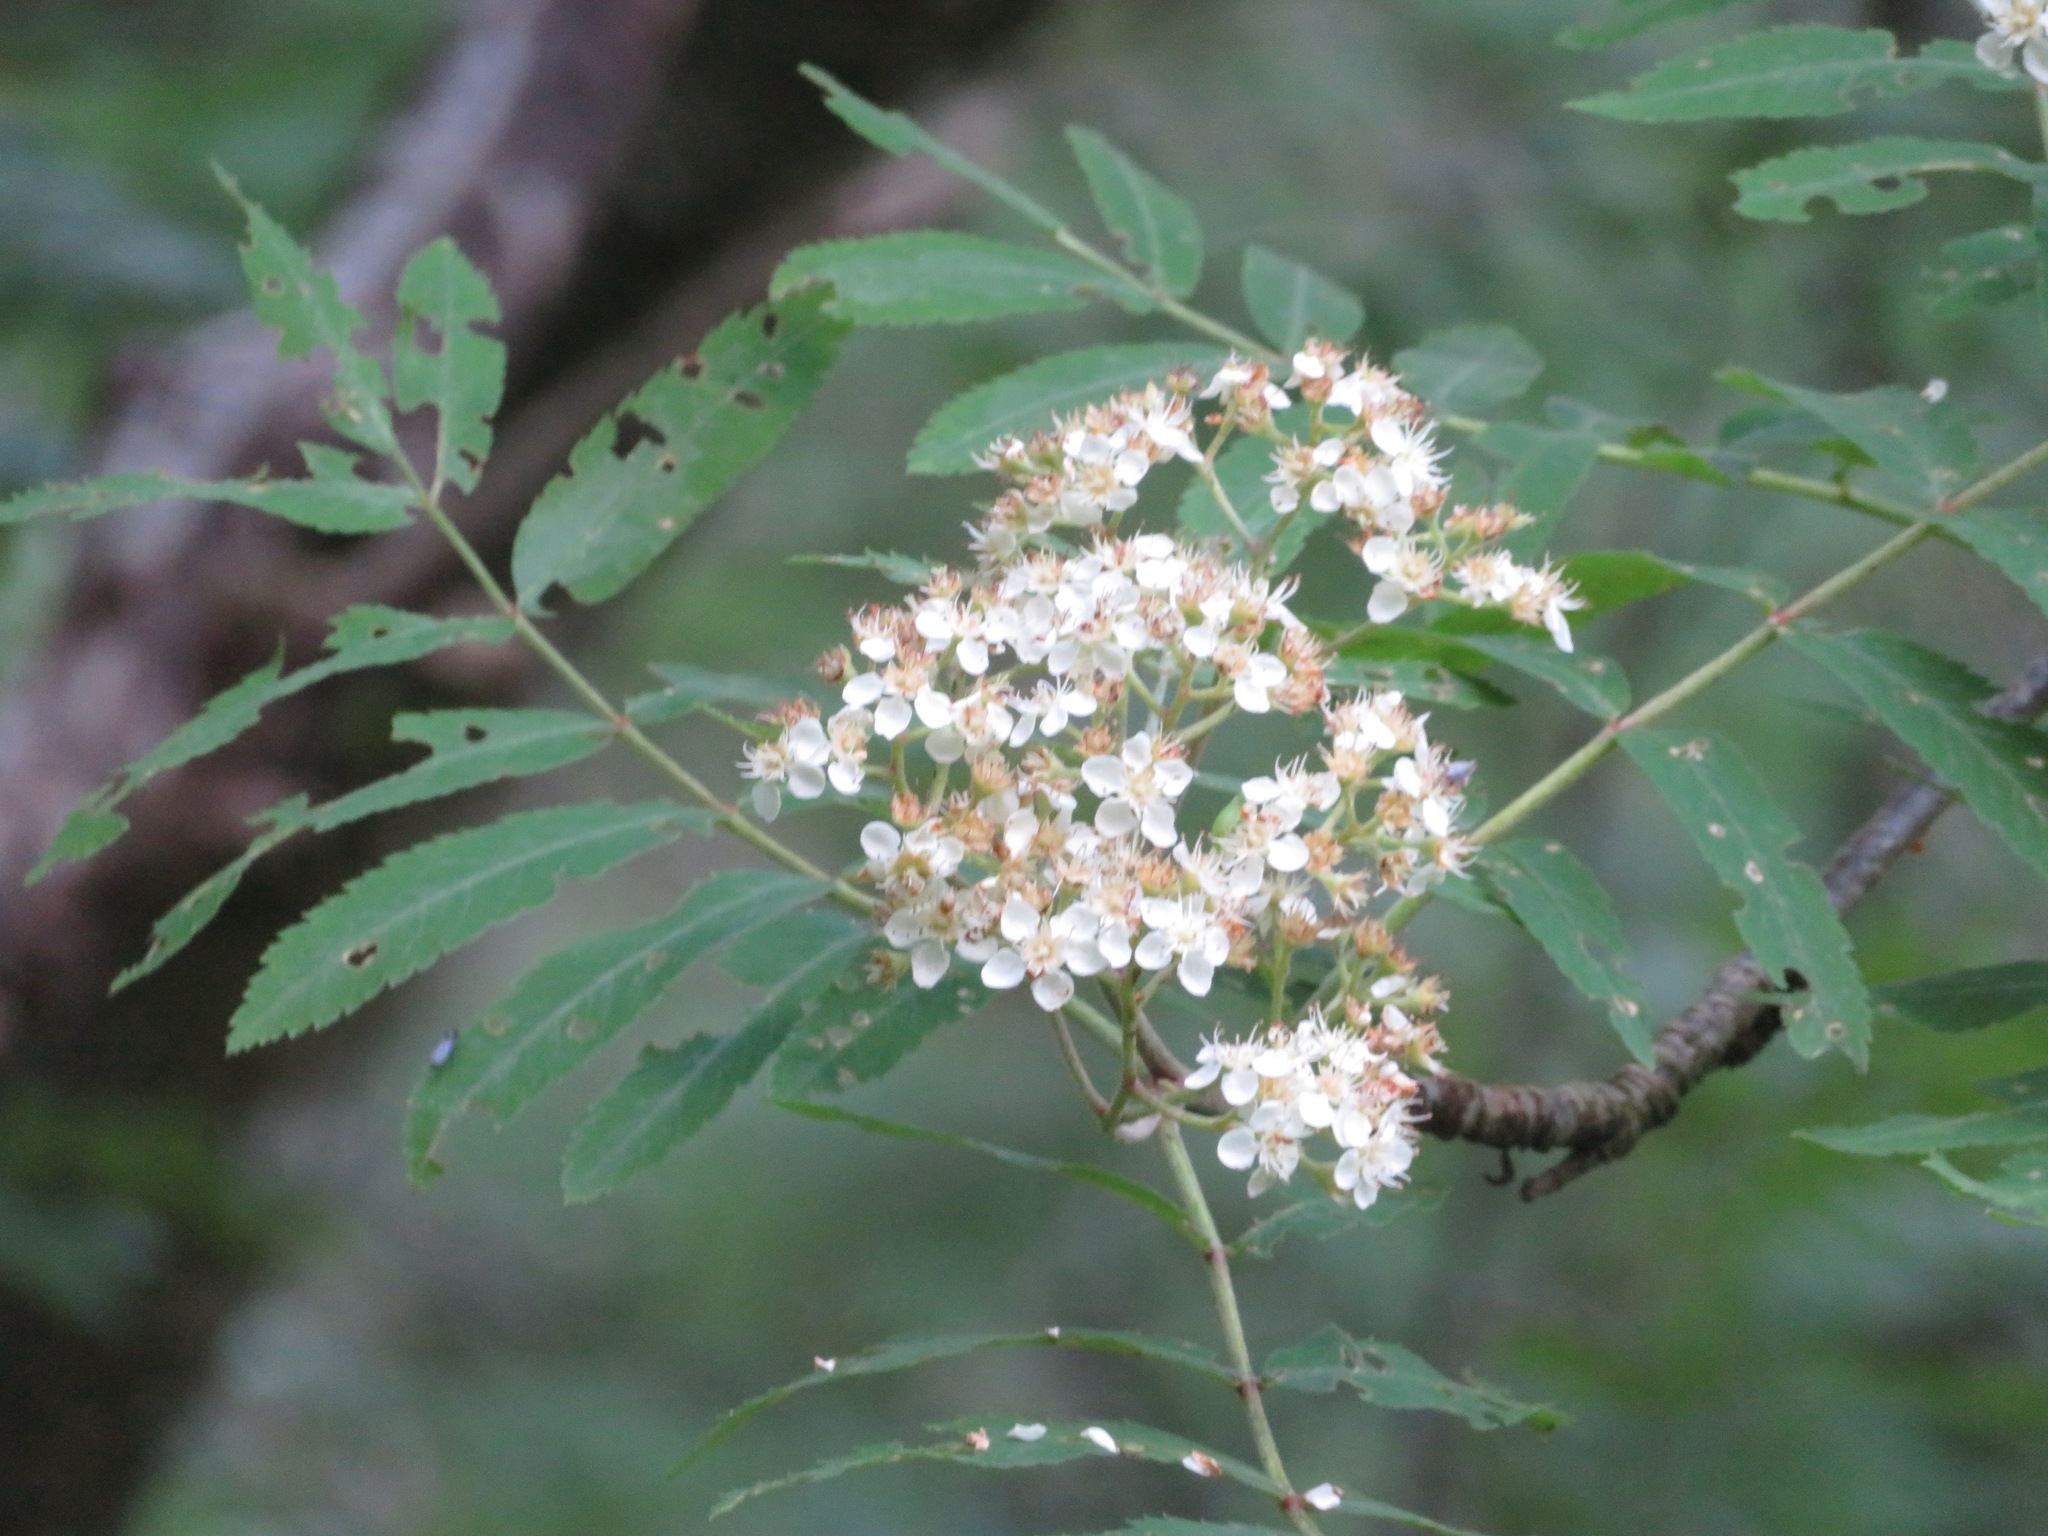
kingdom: Plantae
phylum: Tracheophyta
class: Magnoliopsida
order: Rosales
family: Rosaceae
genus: Sorbus
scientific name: Sorbus aucuparia
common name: Rowan
